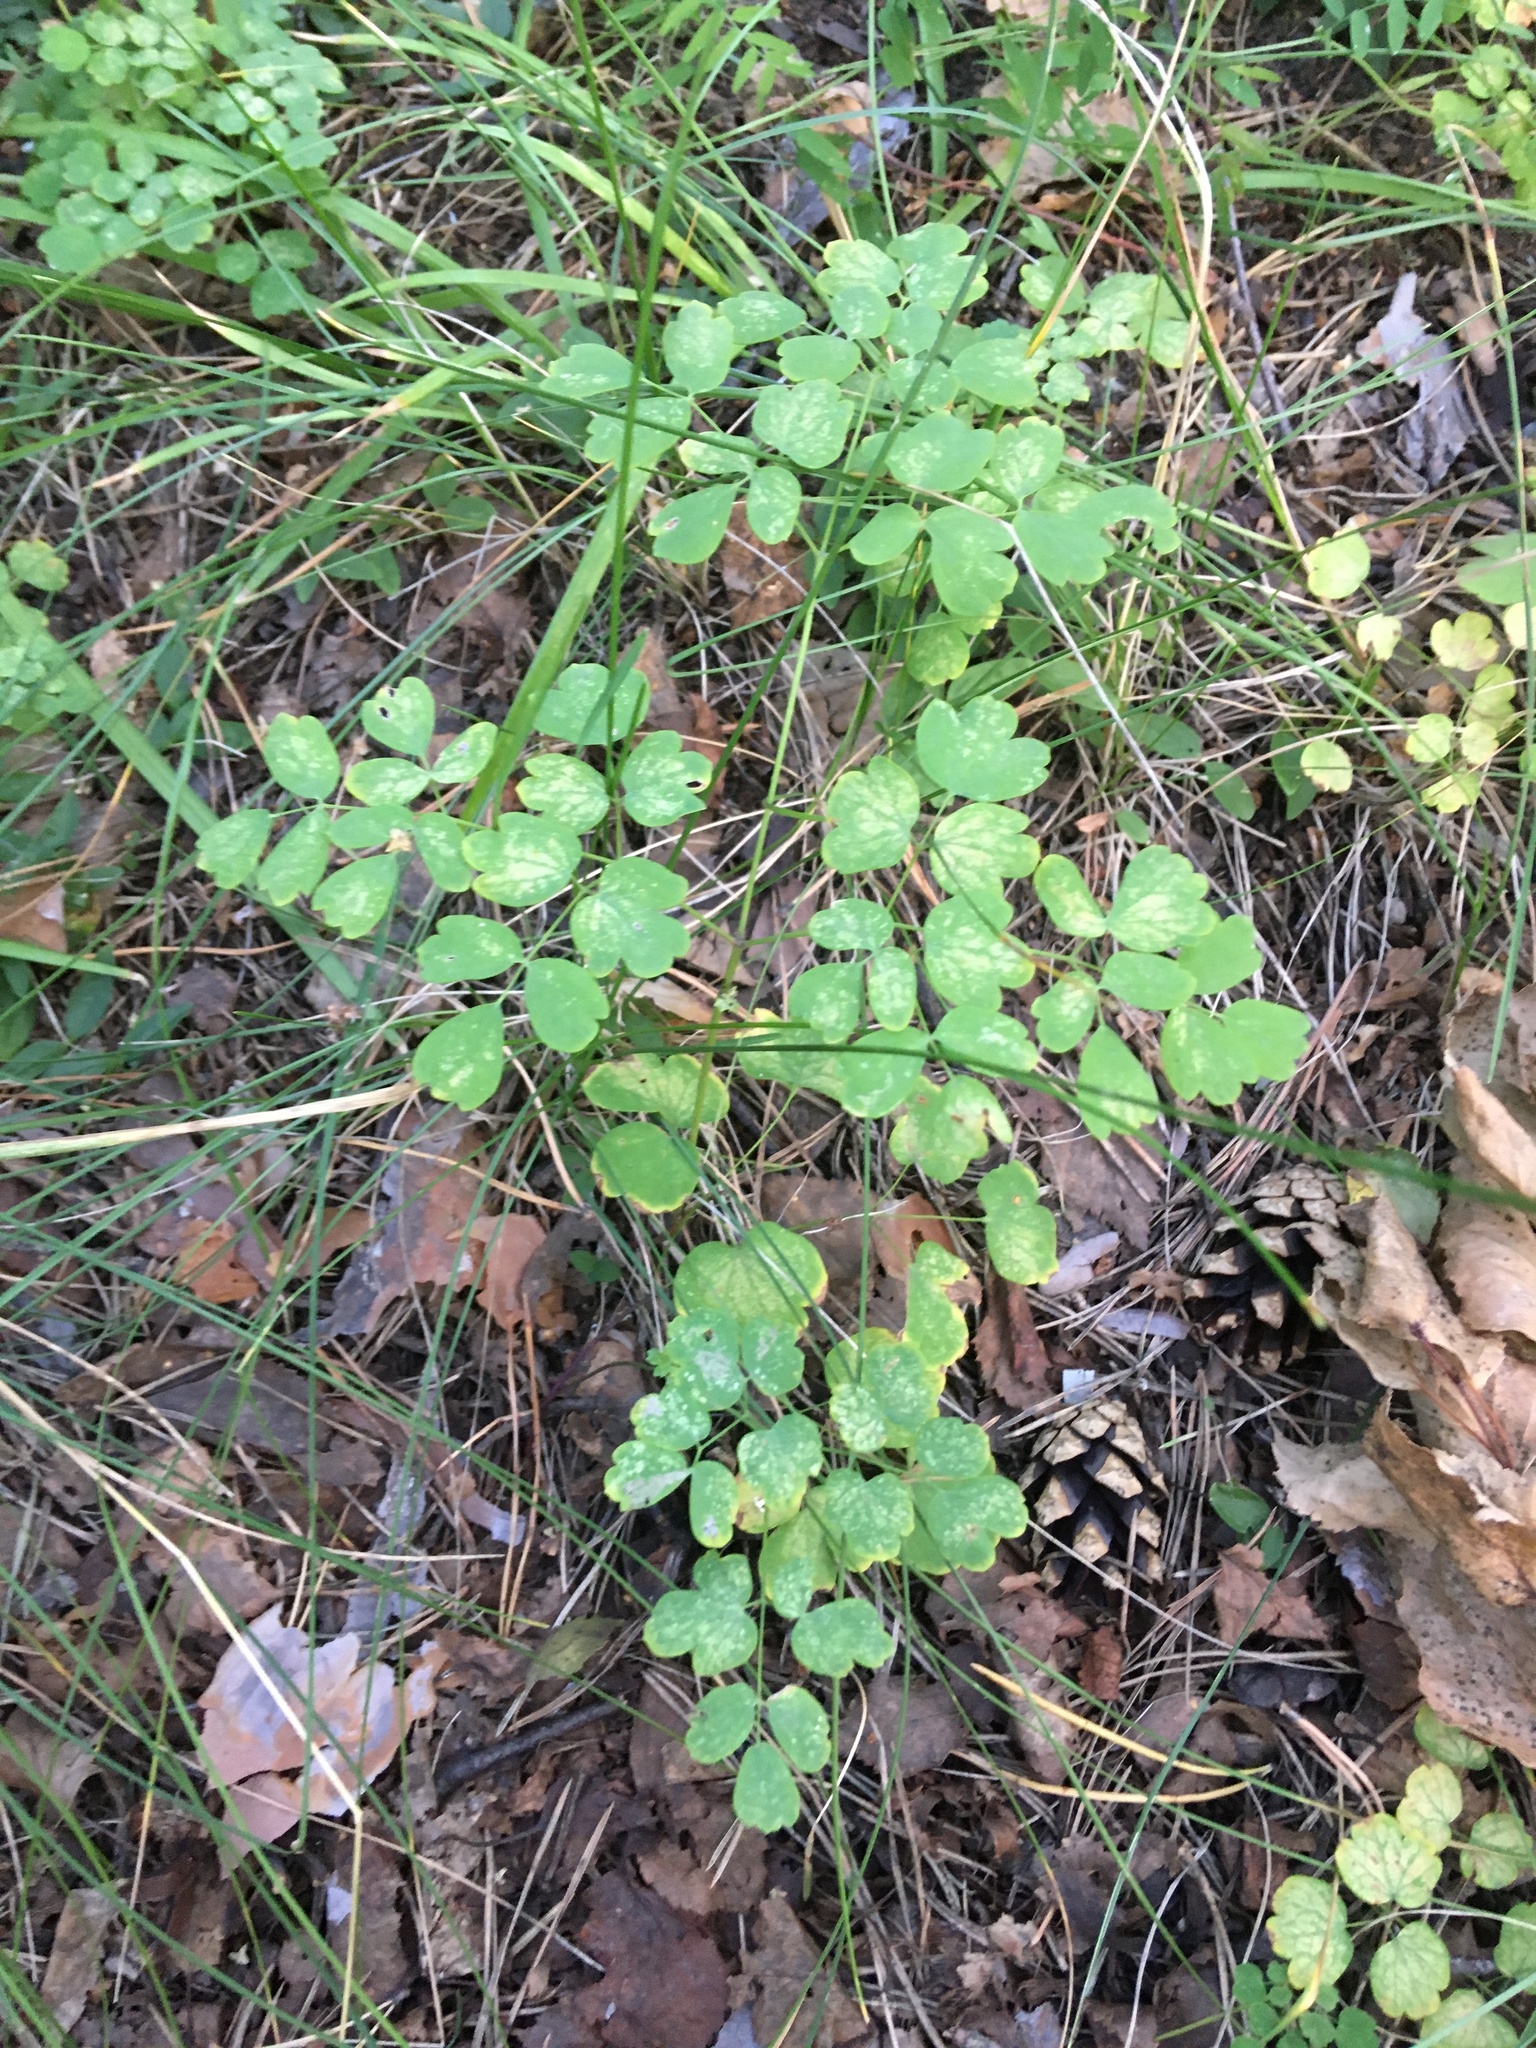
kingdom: Plantae
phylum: Tracheophyta
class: Magnoliopsida
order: Ranunculales
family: Ranunculaceae
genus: Thalictrum
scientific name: Thalictrum minus
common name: Lesser meadow-rue
